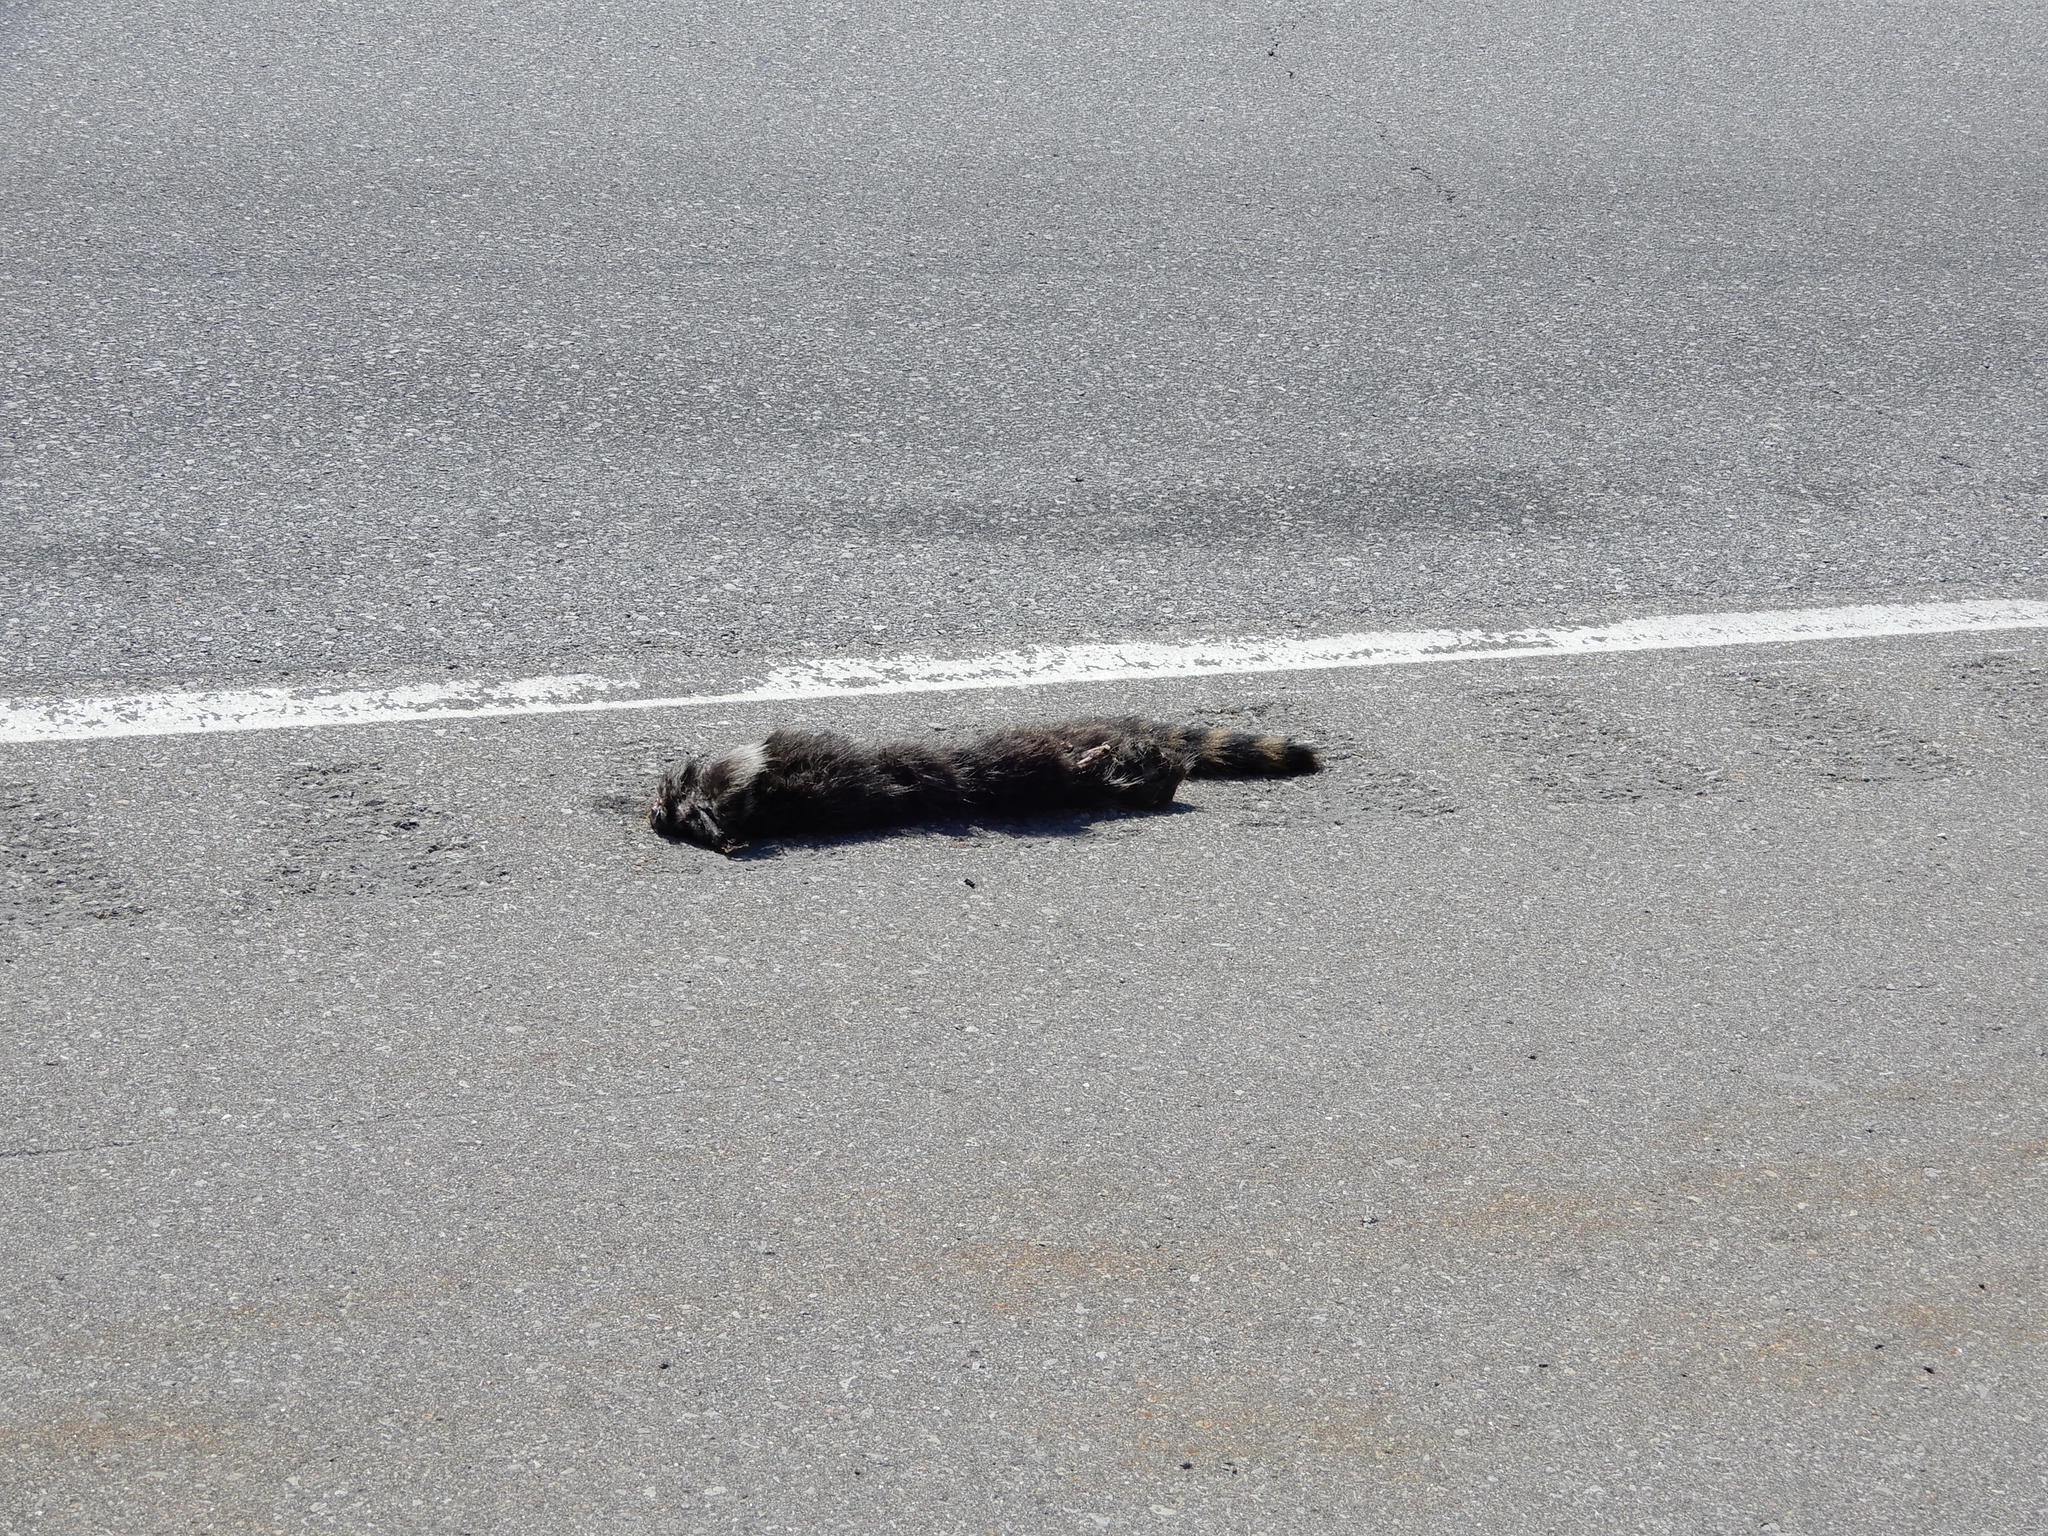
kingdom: Animalia
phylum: Chordata
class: Mammalia
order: Carnivora
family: Procyonidae
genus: Procyon
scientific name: Procyon lotor
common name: Raccoon
